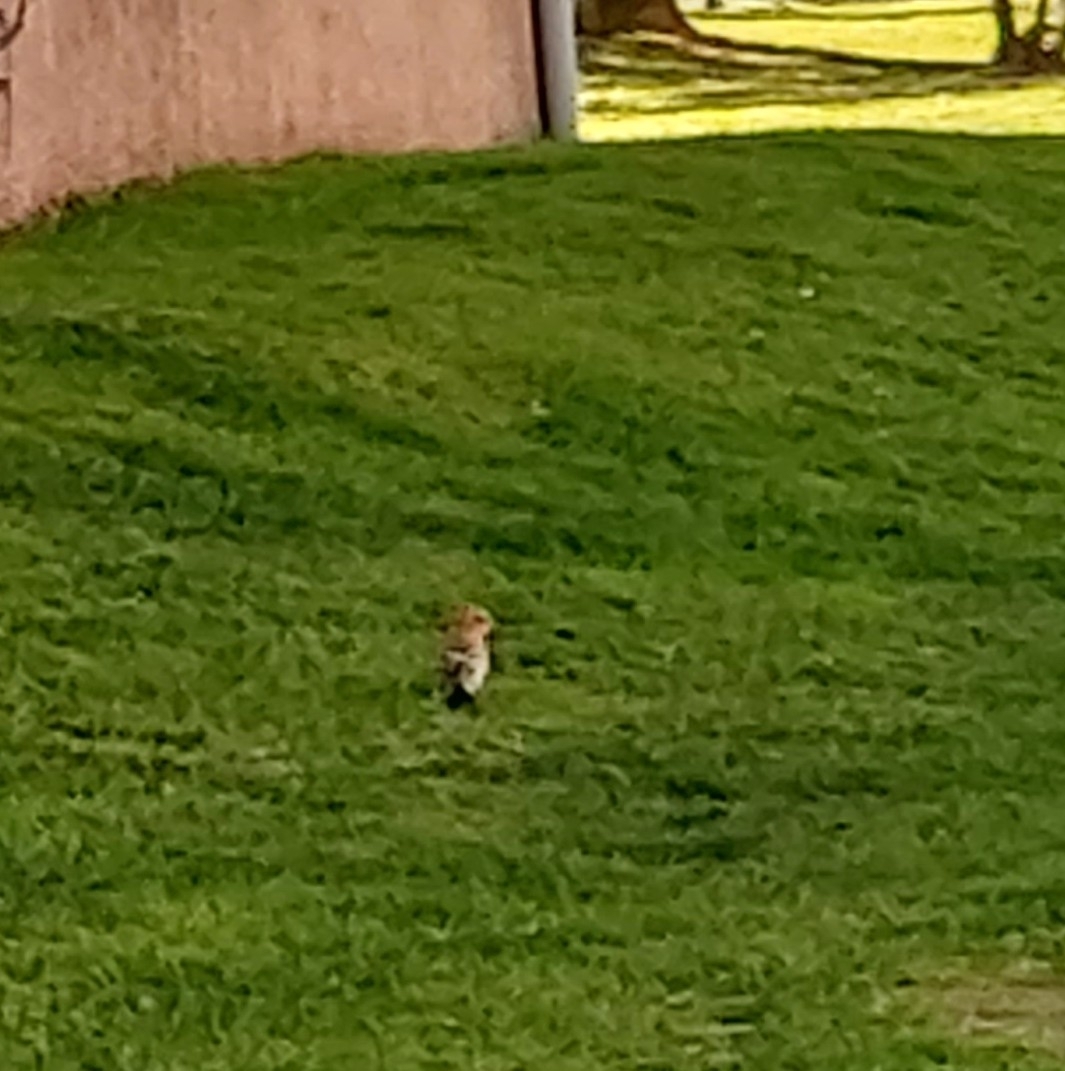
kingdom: Animalia
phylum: Chordata
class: Aves
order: Bucerotiformes
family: Upupidae
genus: Upupa
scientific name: Upupa epops
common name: Eurasian hoopoe
